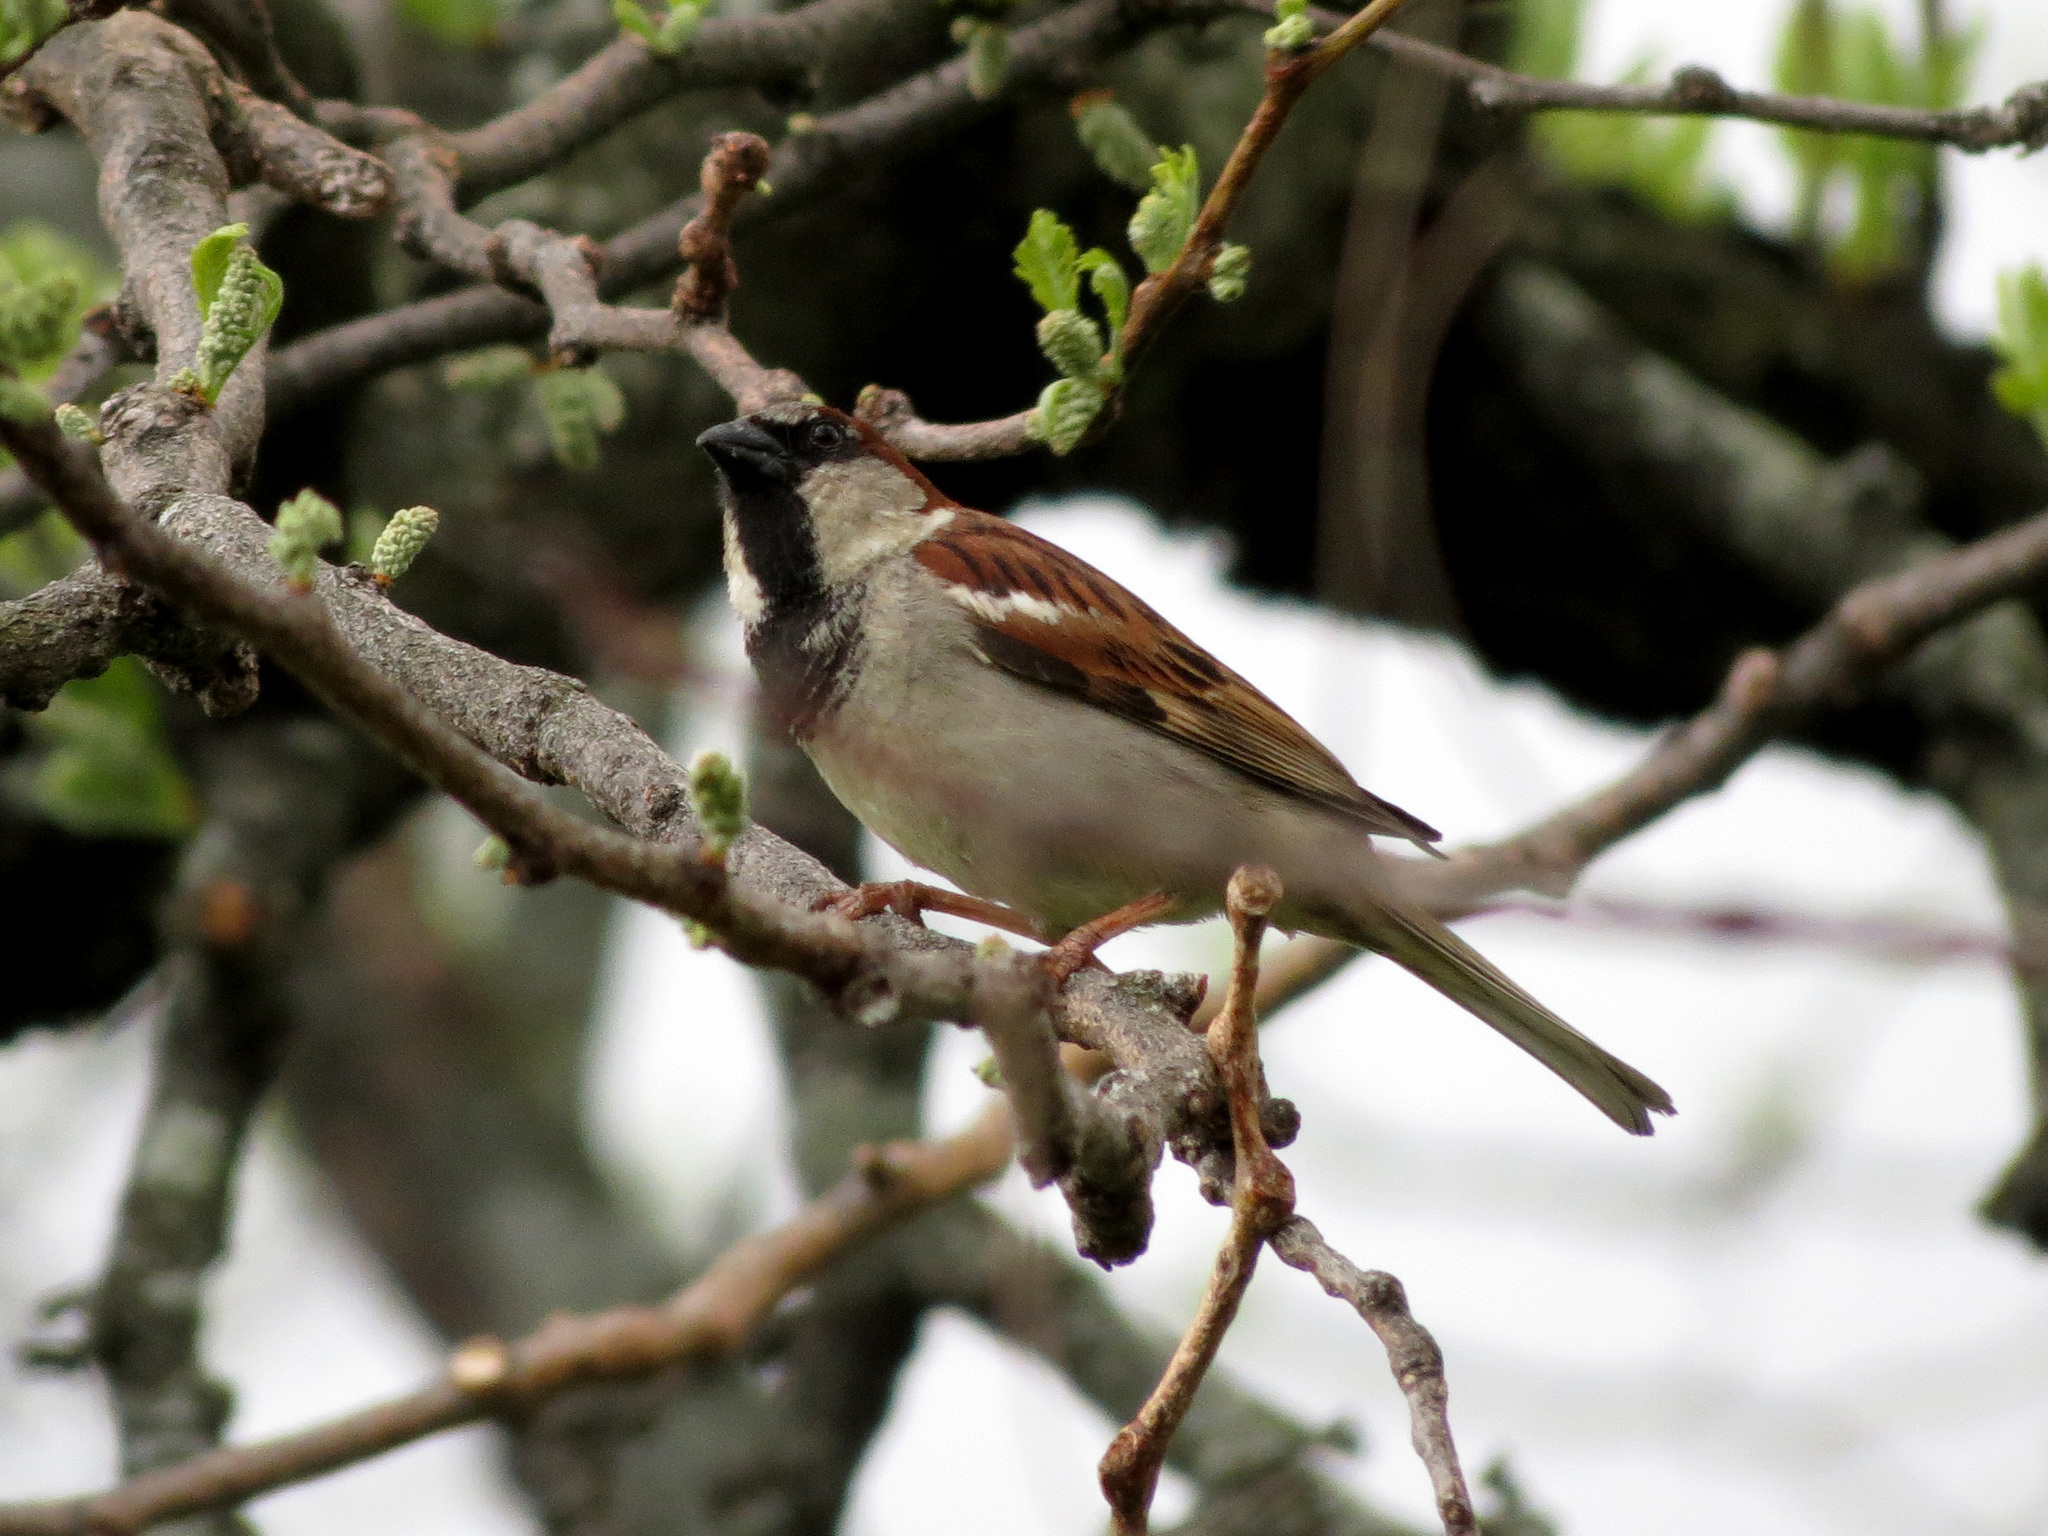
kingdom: Animalia
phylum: Chordata
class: Aves
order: Passeriformes
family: Passeridae
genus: Passer
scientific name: Passer domesticus
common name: House sparrow
